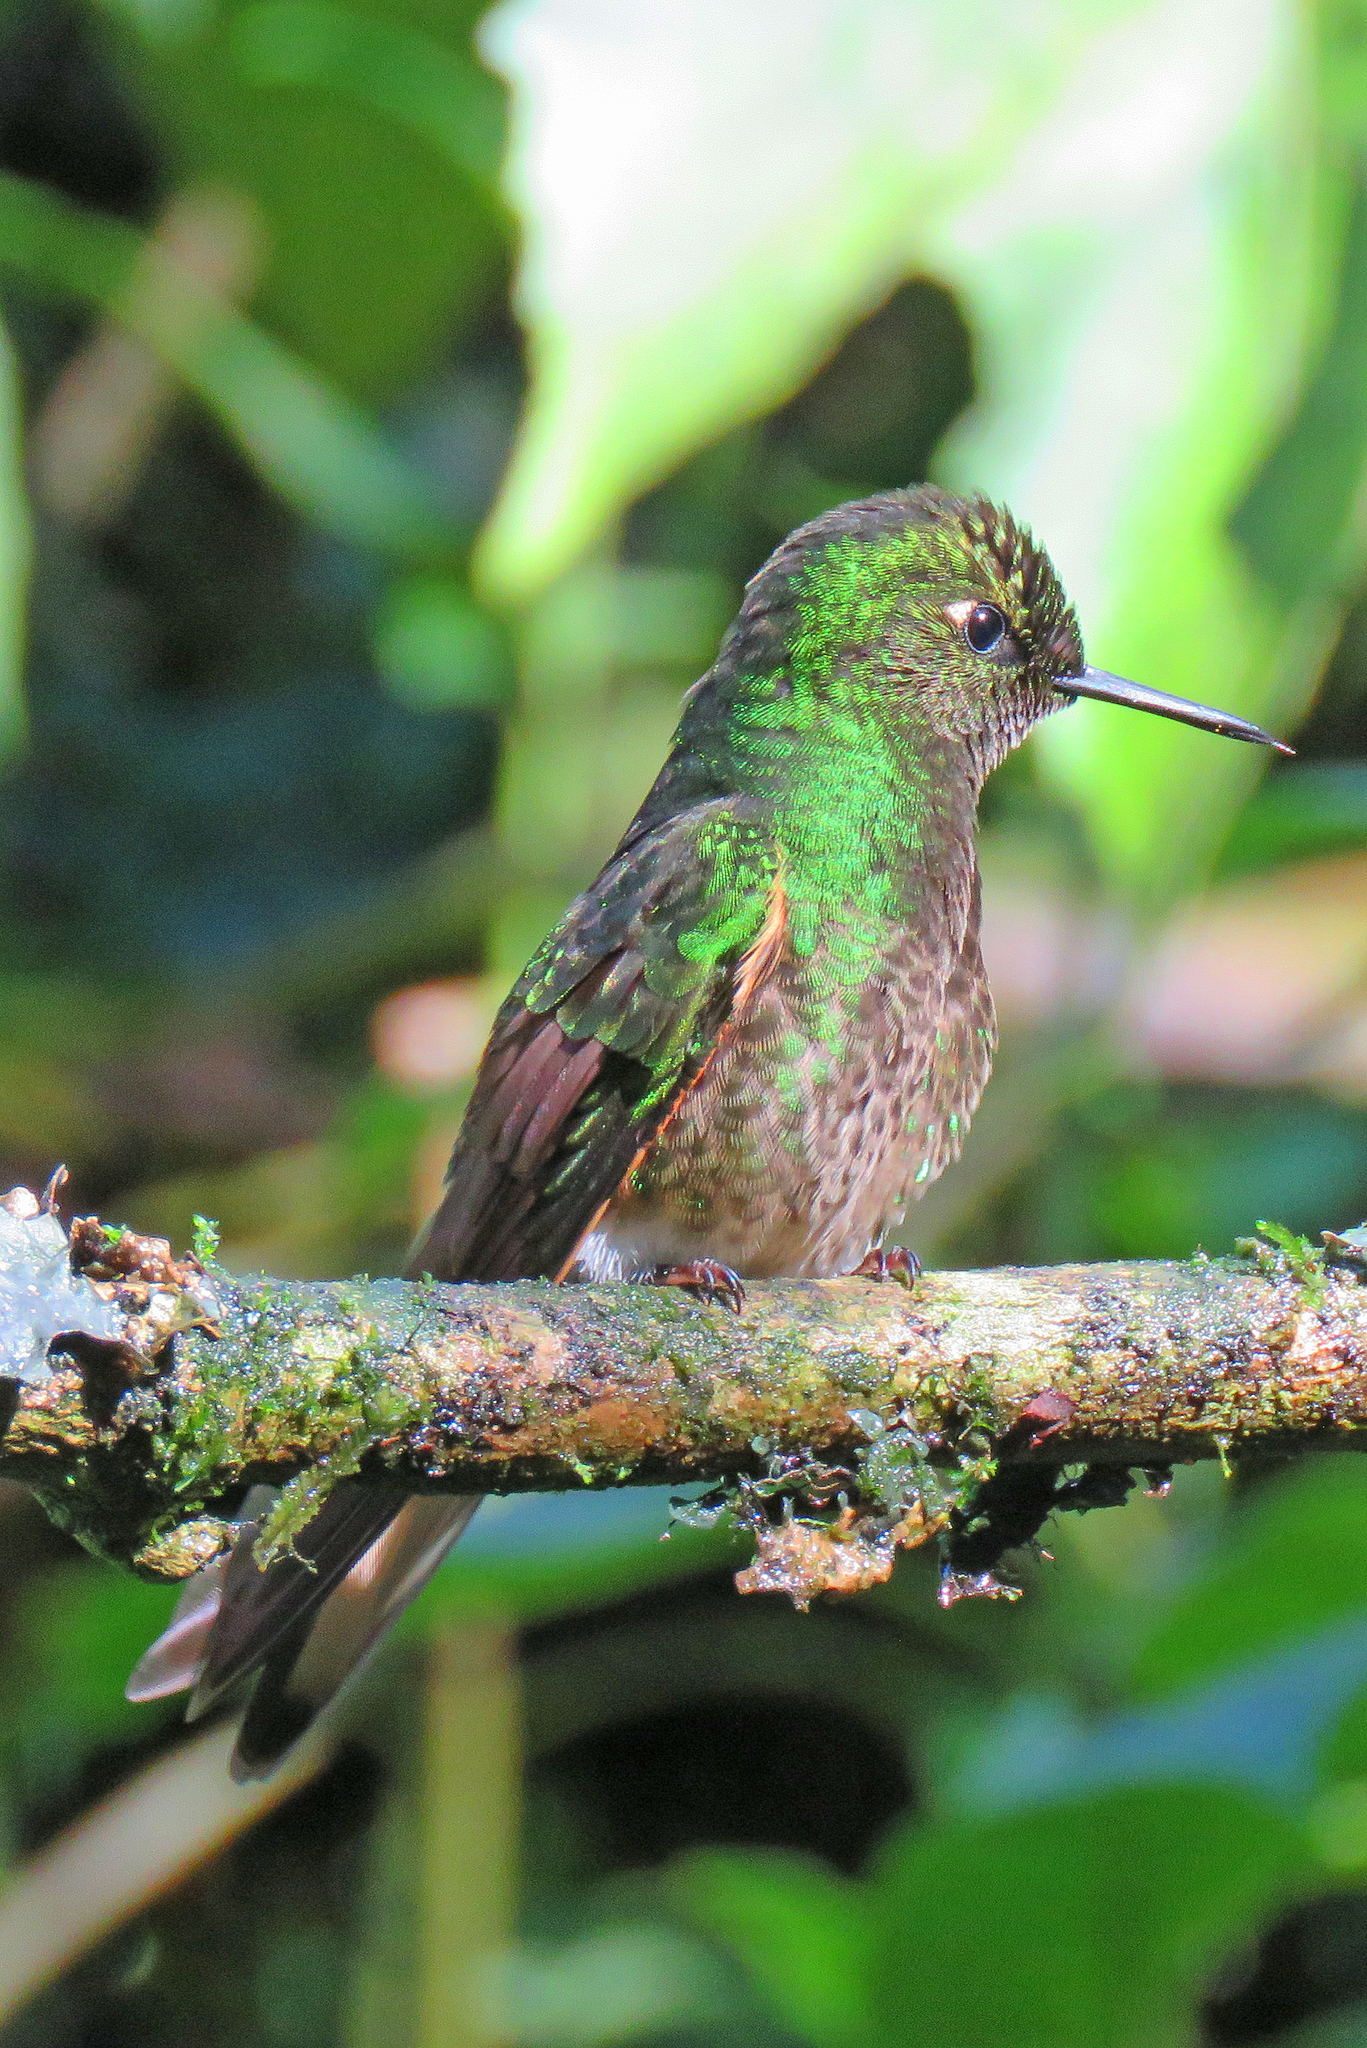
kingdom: Animalia
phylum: Chordata
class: Aves
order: Apodiformes
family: Trochilidae
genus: Boissonneaua
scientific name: Boissonneaua flavescens
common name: Buff-tailed coronet
